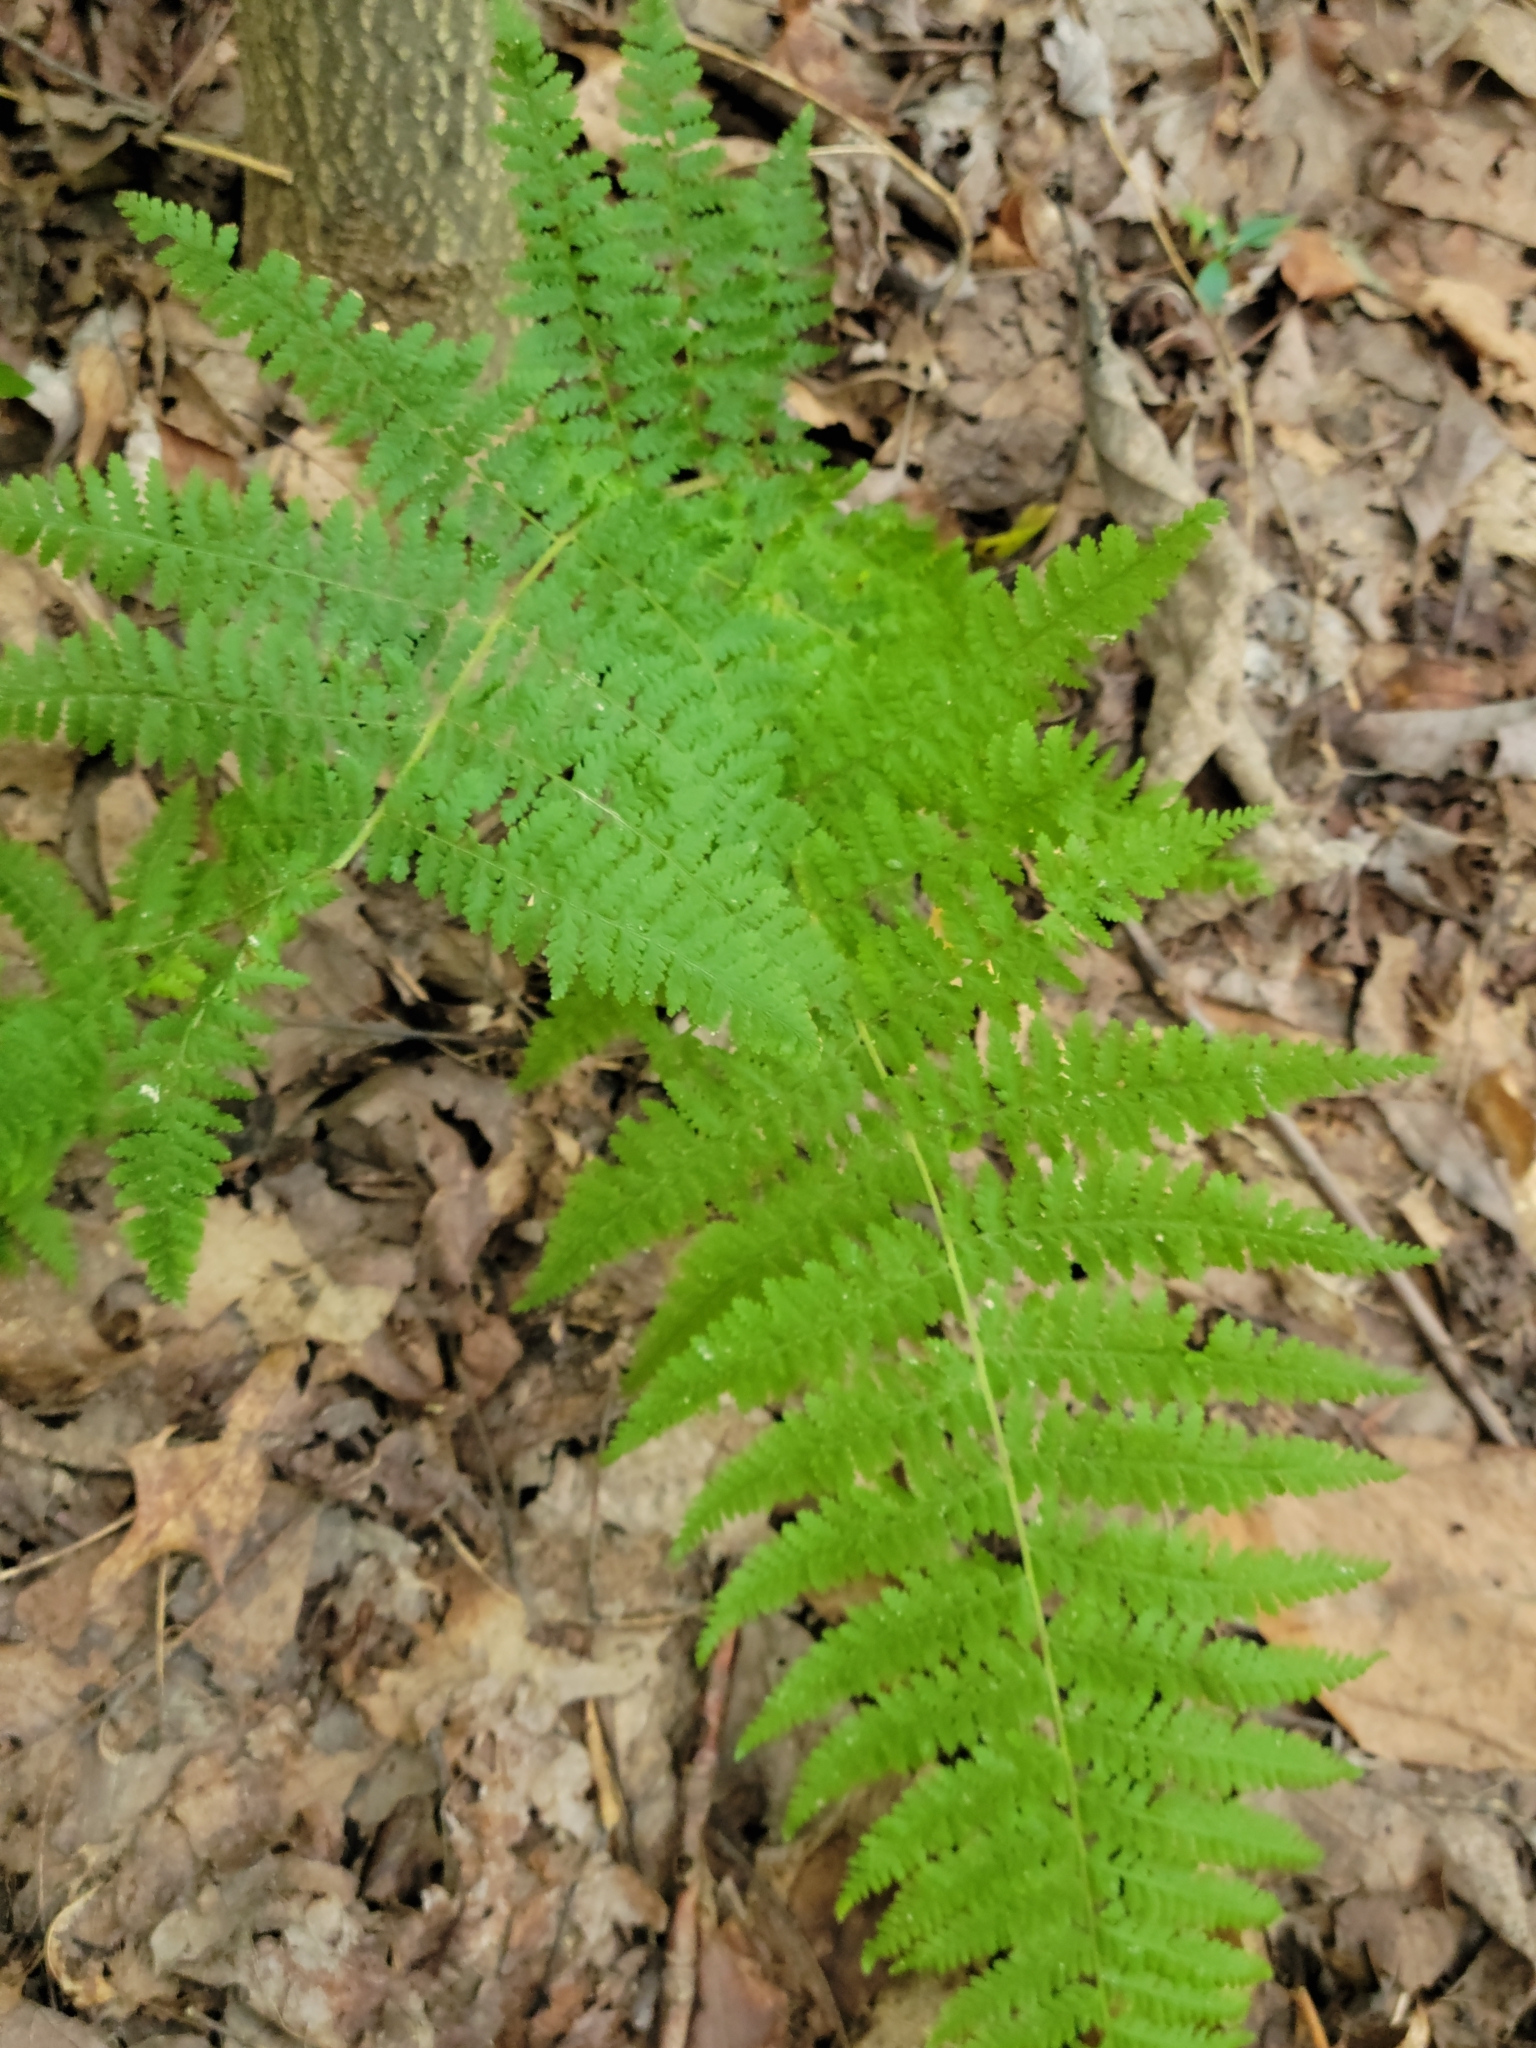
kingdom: Plantae
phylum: Tracheophyta
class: Polypodiopsida
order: Polypodiales
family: Dennstaedtiaceae
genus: Sitobolium
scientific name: Sitobolium punctilobum
